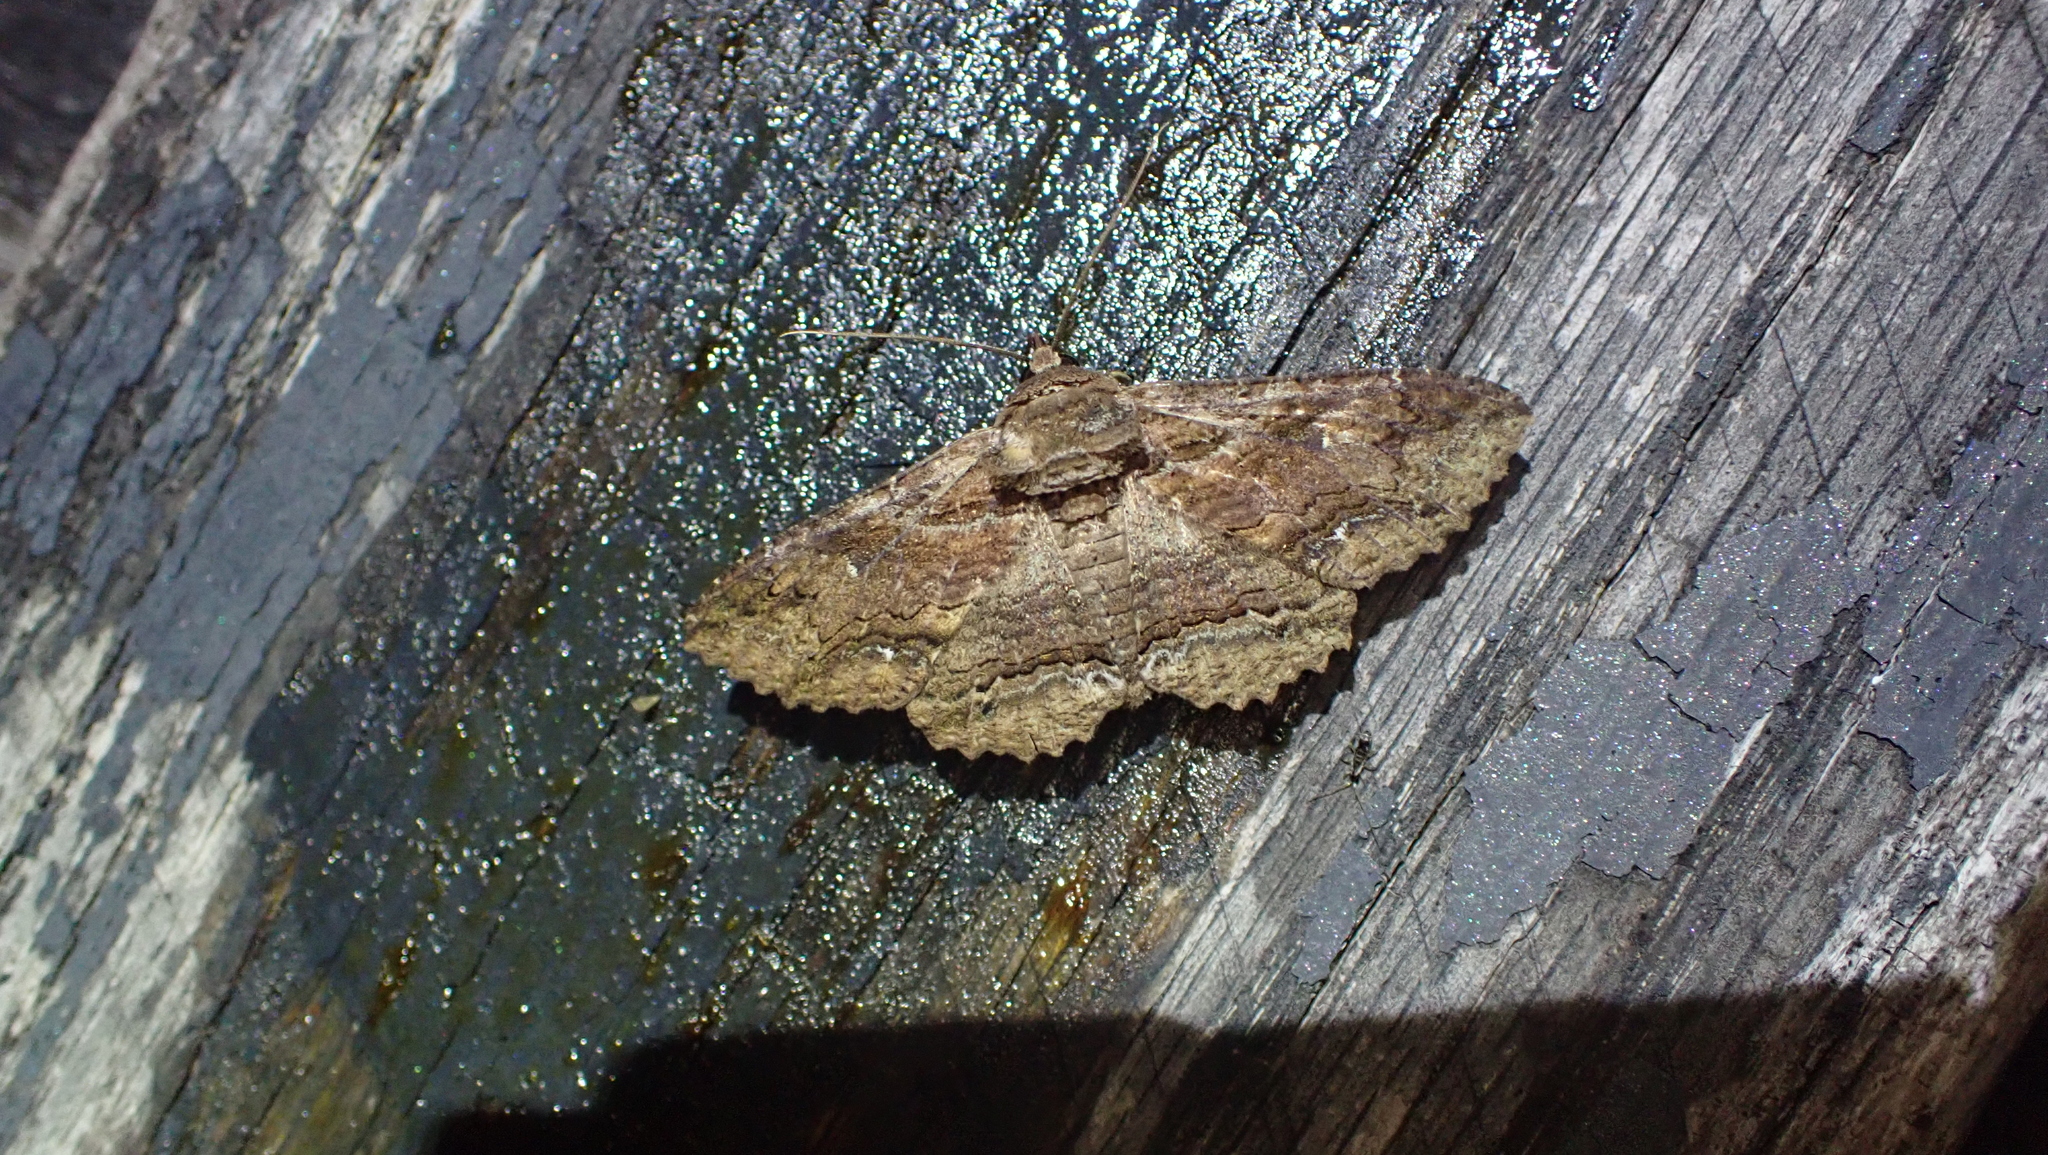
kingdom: Animalia
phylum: Arthropoda
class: Insecta
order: Lepidoptera
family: Erebidae
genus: Zale
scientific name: Zale lunata
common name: Lunate zale moth
